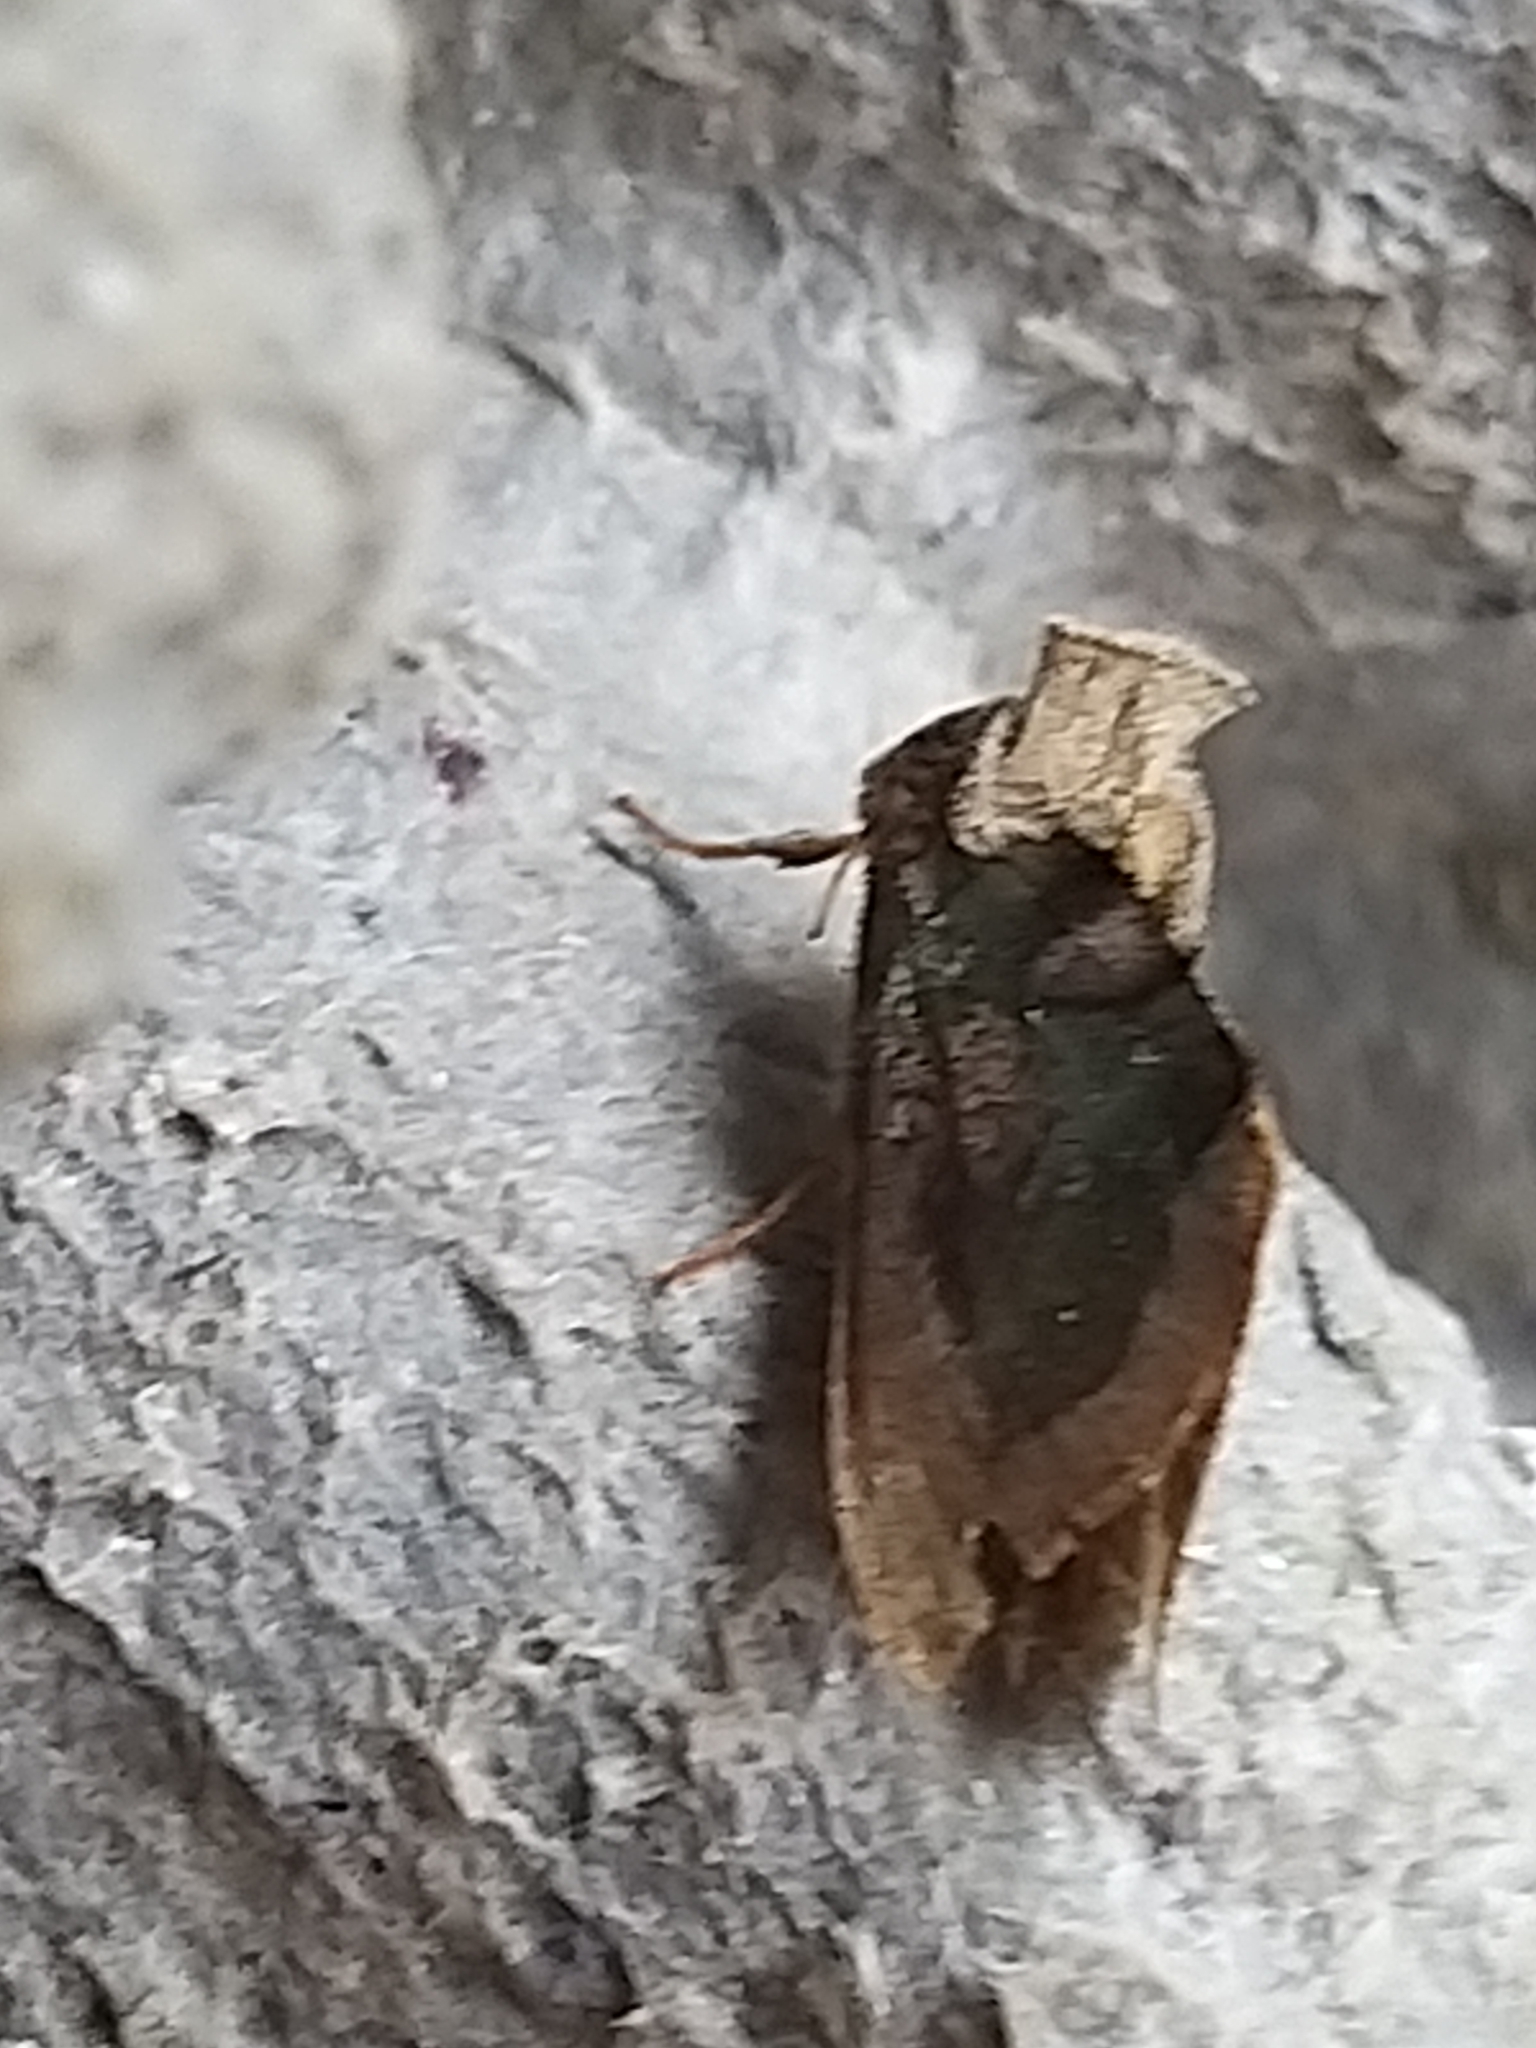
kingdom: Animalia
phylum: Arthropoda
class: Insecta
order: Lepidoptera
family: Noctuidae
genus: Diachrysia
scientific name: Diachrysia chrysitis
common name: Burnished brass
